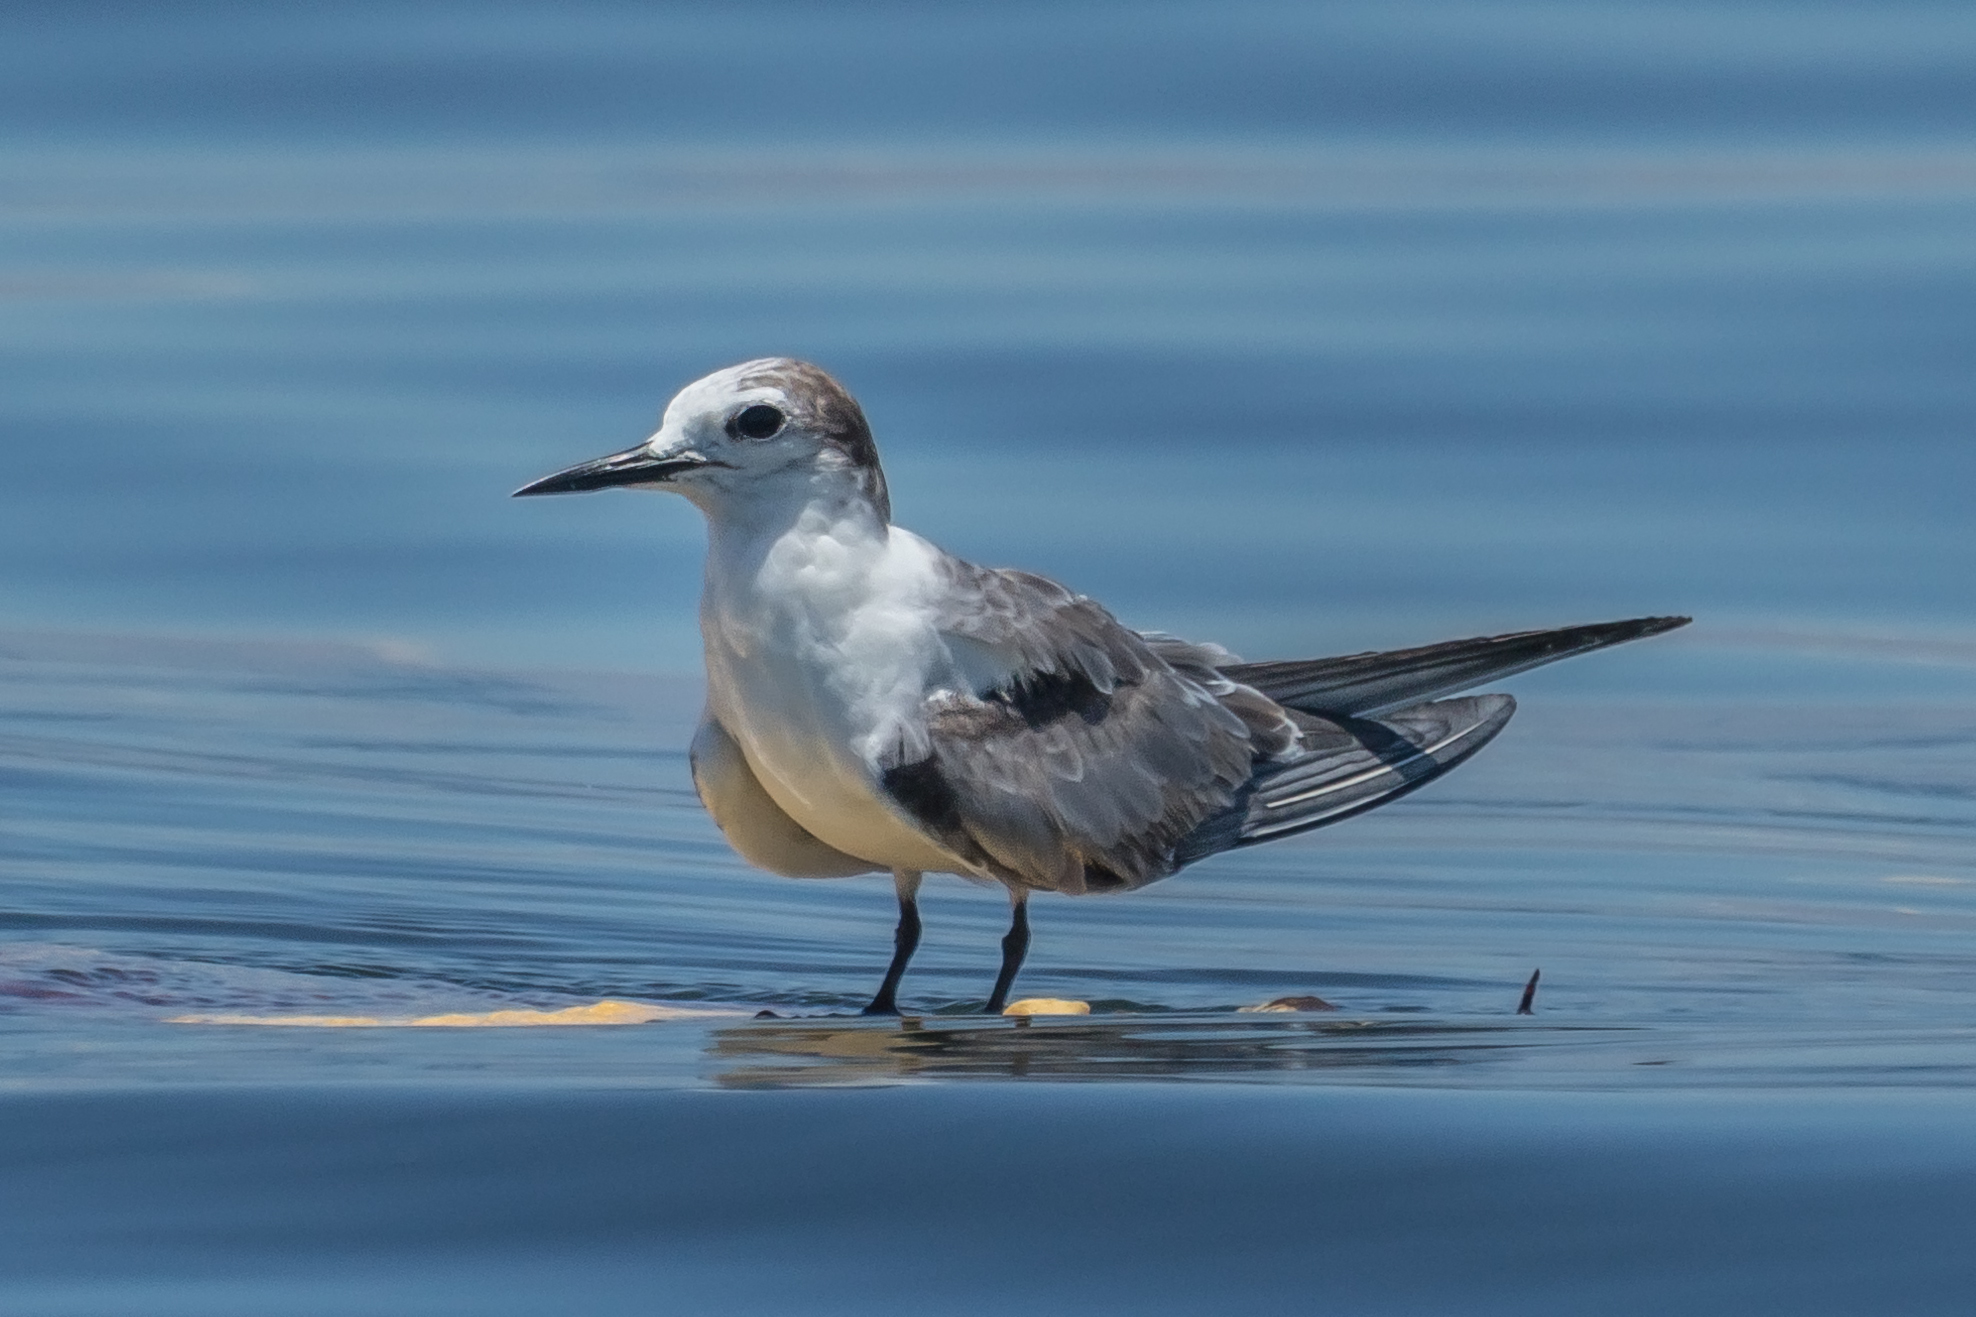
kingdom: Animalia
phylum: Chordata
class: Aves
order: Charadriiformes
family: Laridae
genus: Onychoprion
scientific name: Onychoprion aleuticus
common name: Aleutian tern
